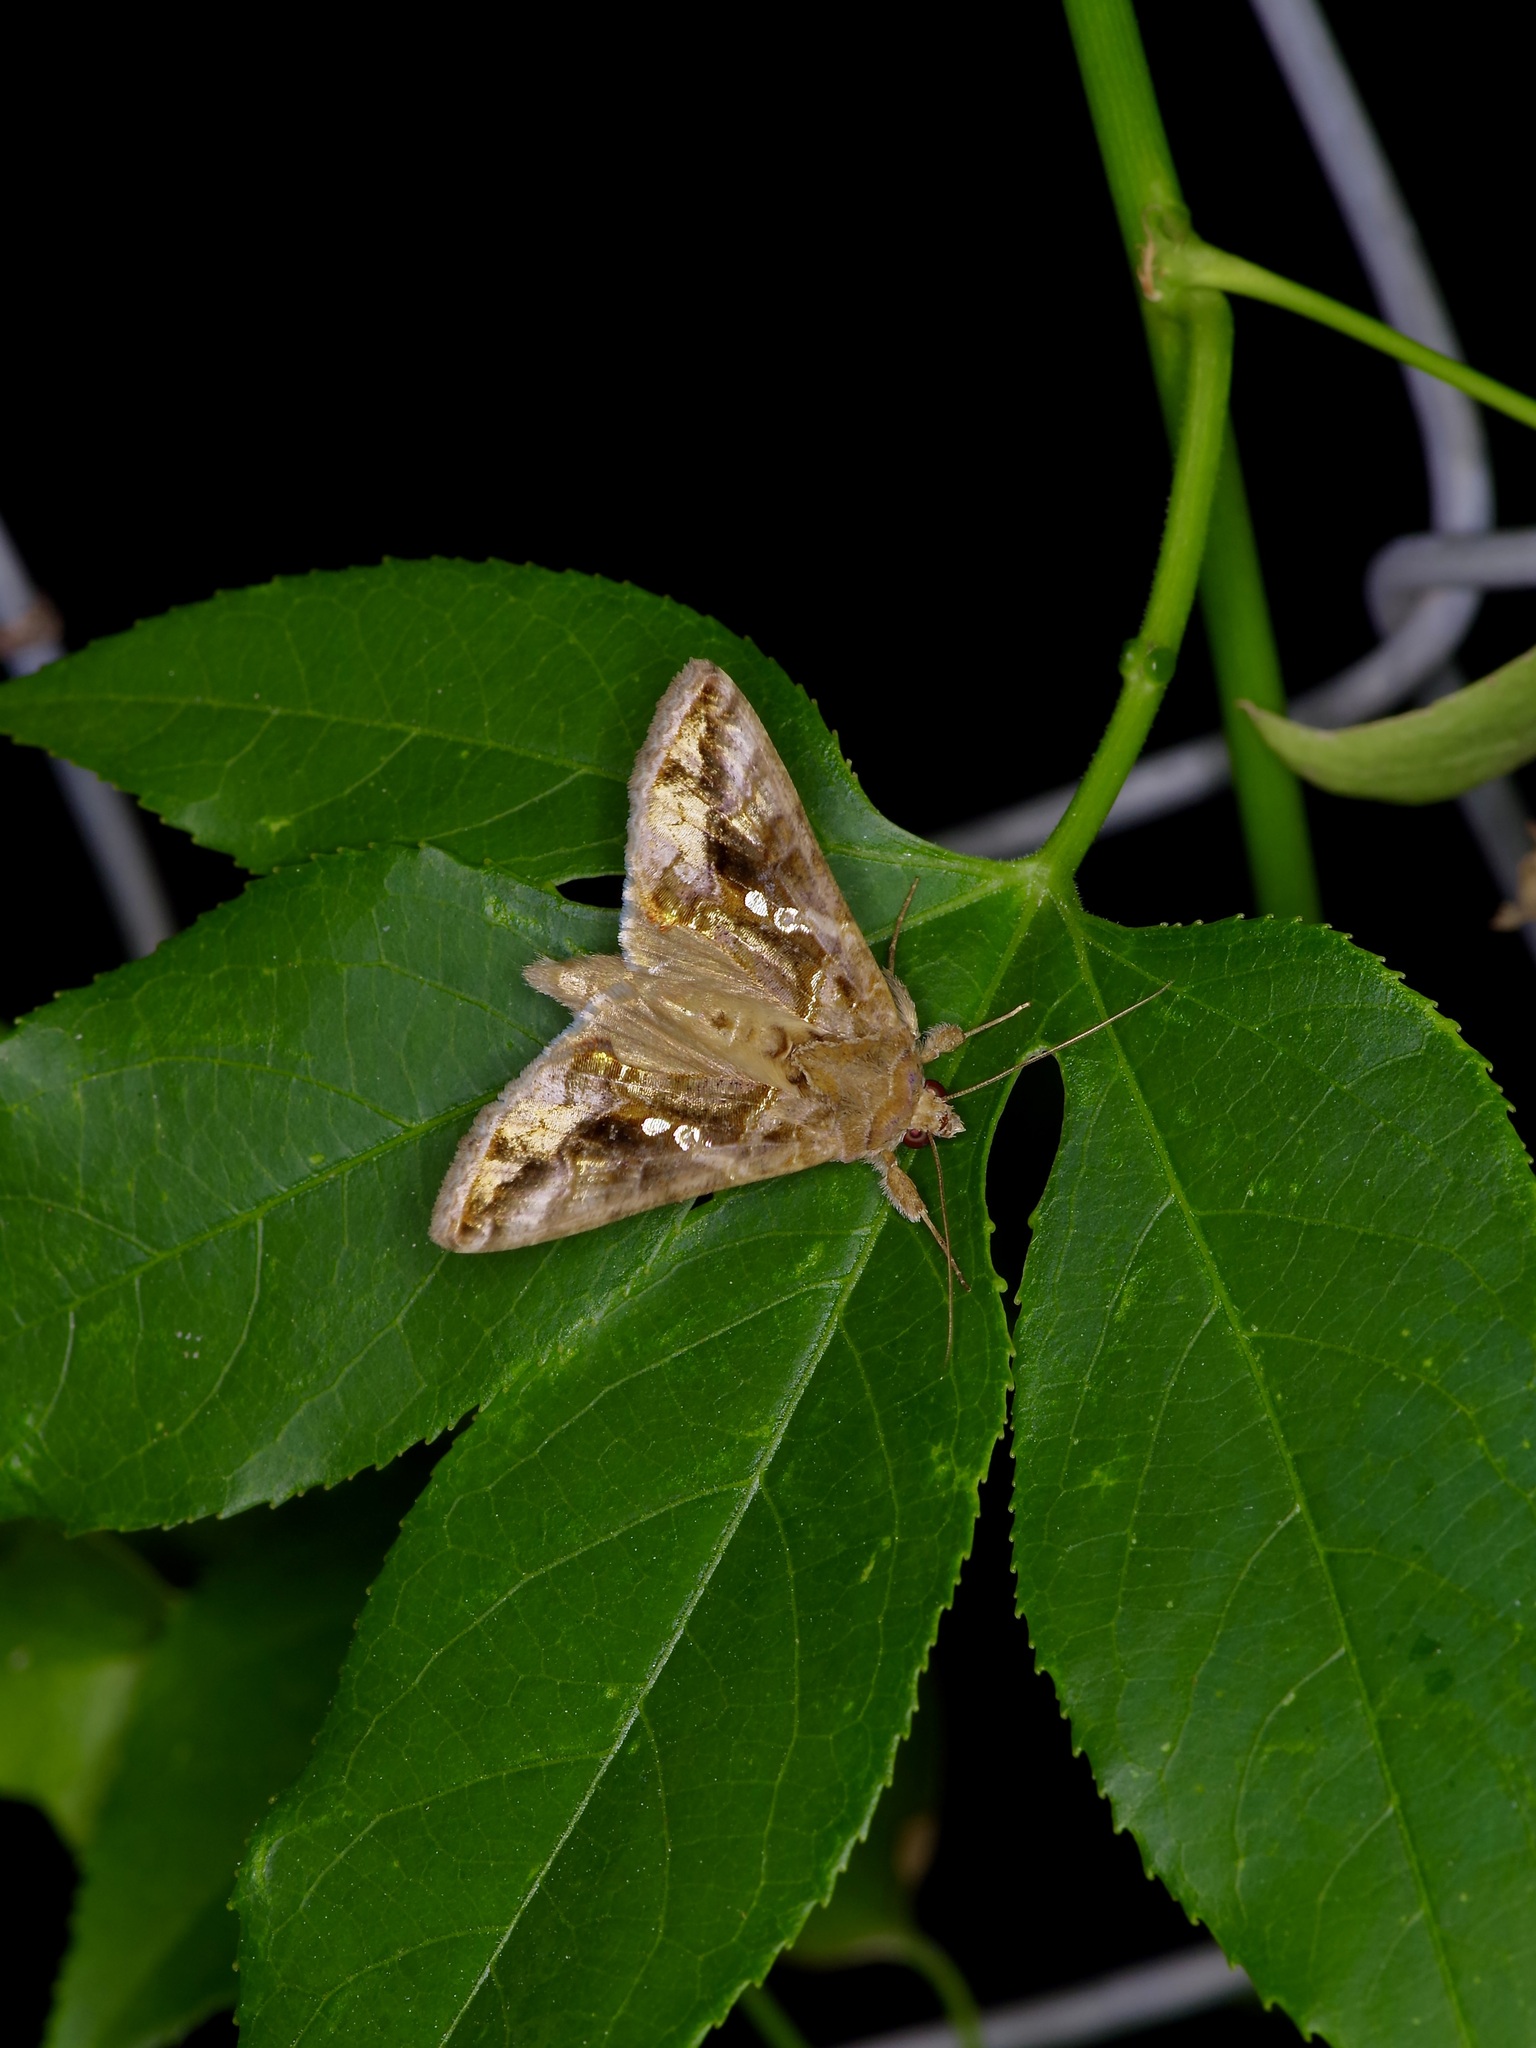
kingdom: Animalia
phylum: Arthropoda
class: Insecta
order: Lepidoptera
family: Noctuidae
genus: Chrysodeixis
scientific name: Chrysodeixis includens
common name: Cutworm moth
